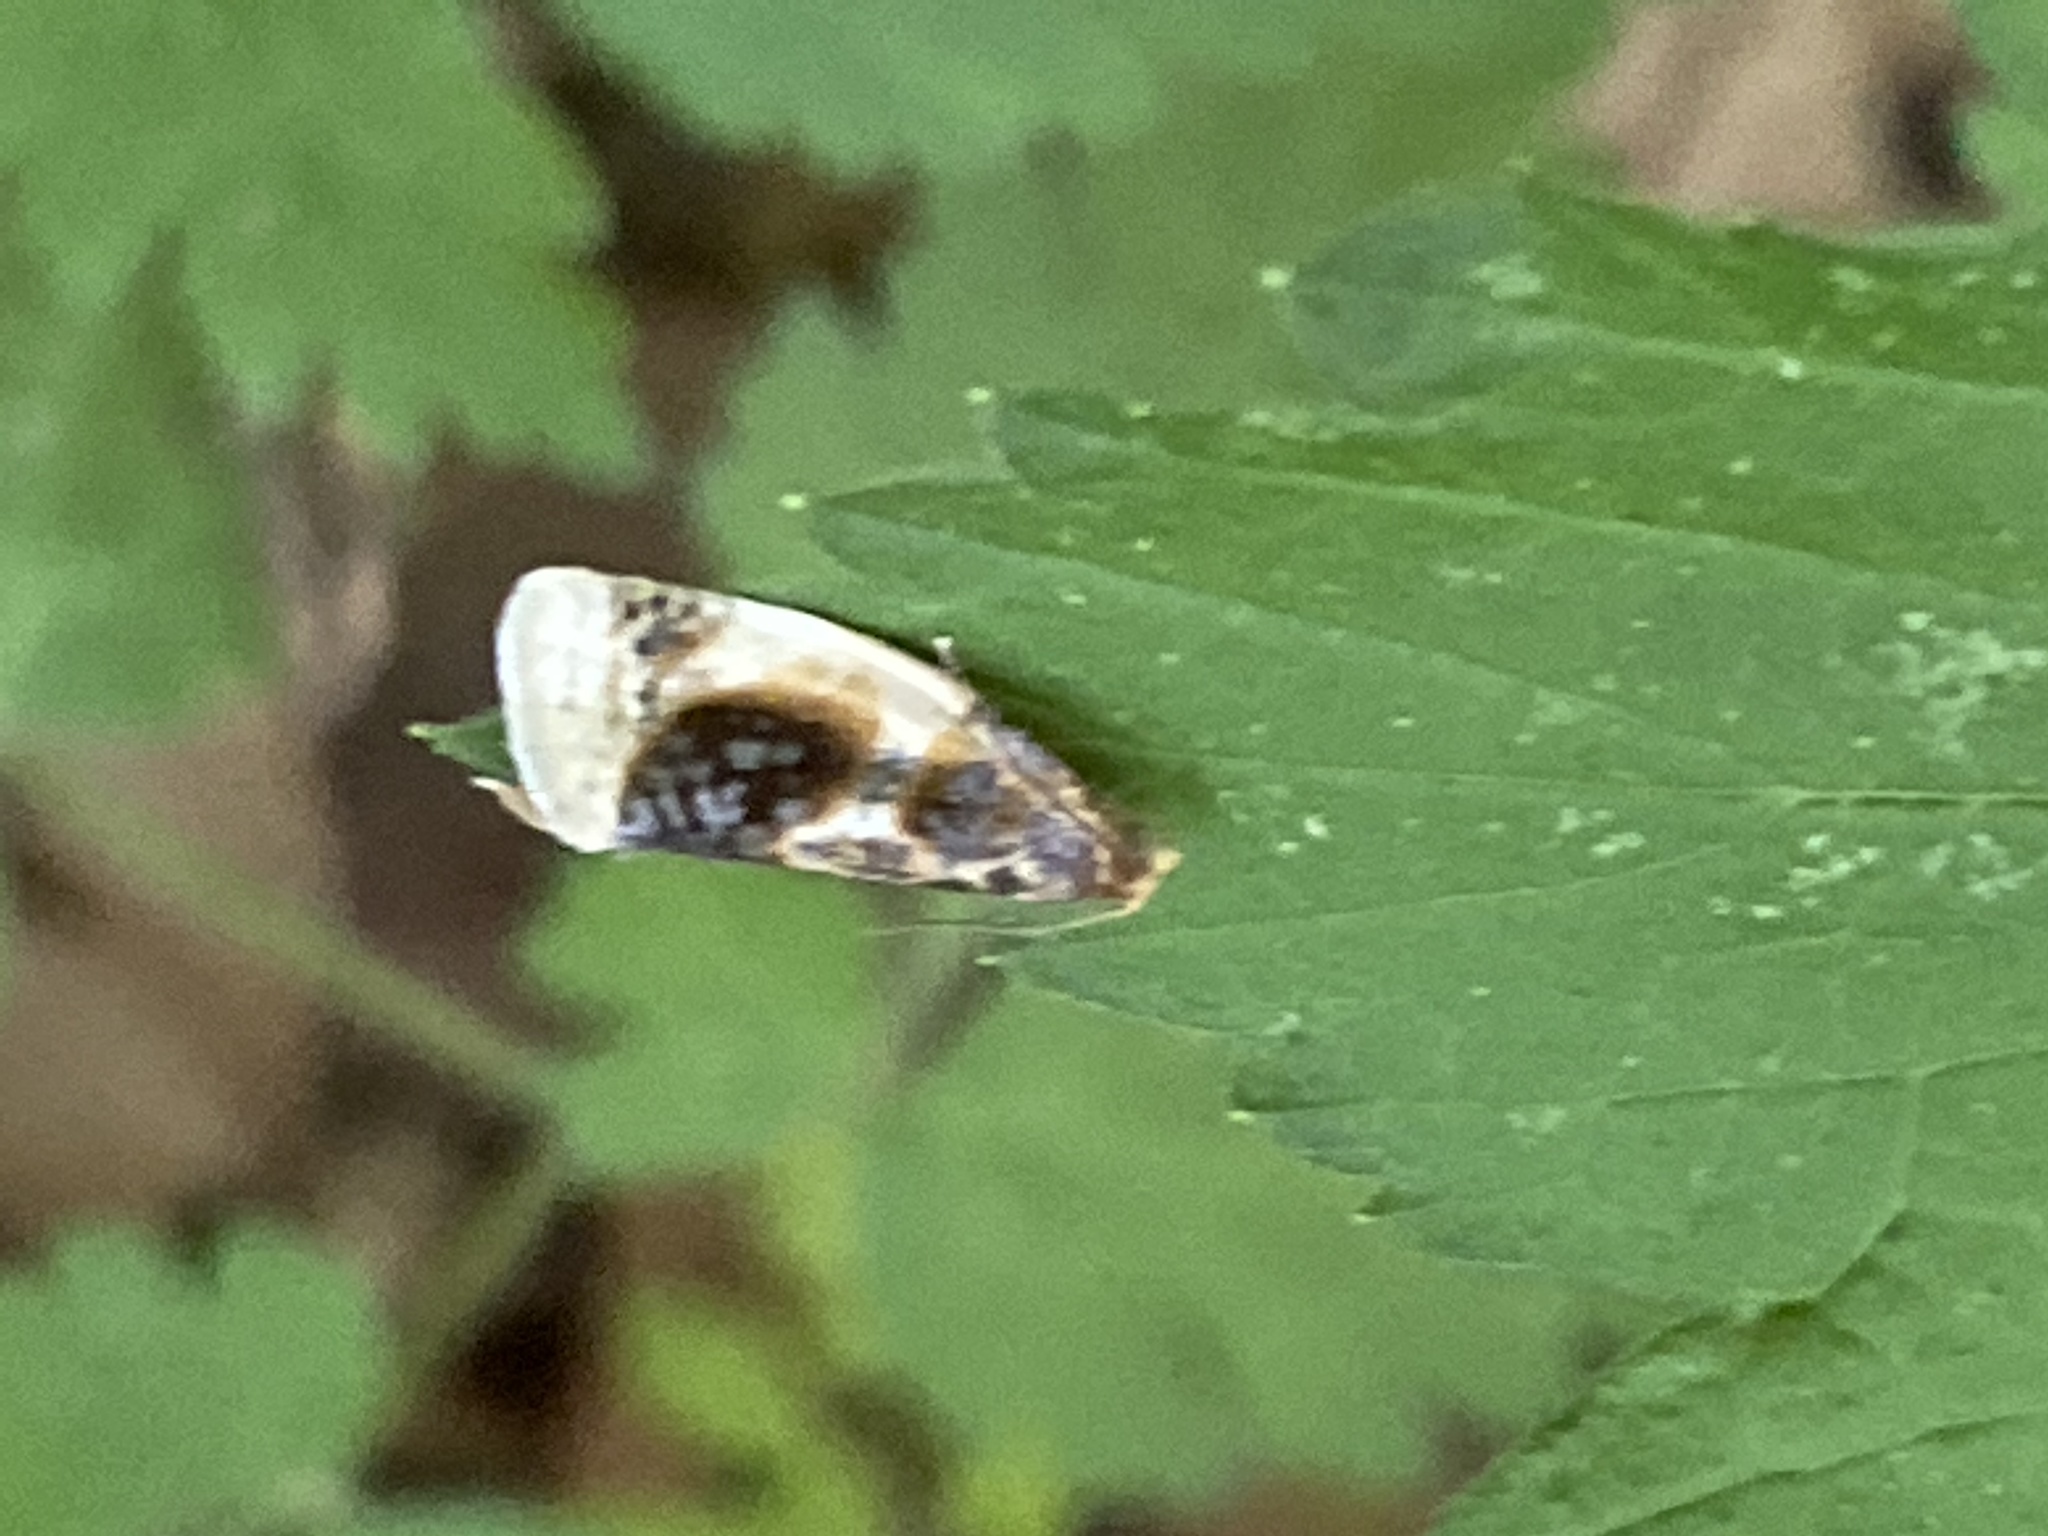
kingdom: Animalia
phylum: Arthropoda
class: Insecta
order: Lepidoptera
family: Tortricidae
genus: Clepsis
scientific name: Clepsis melaleucanus
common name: American apple tortrix
